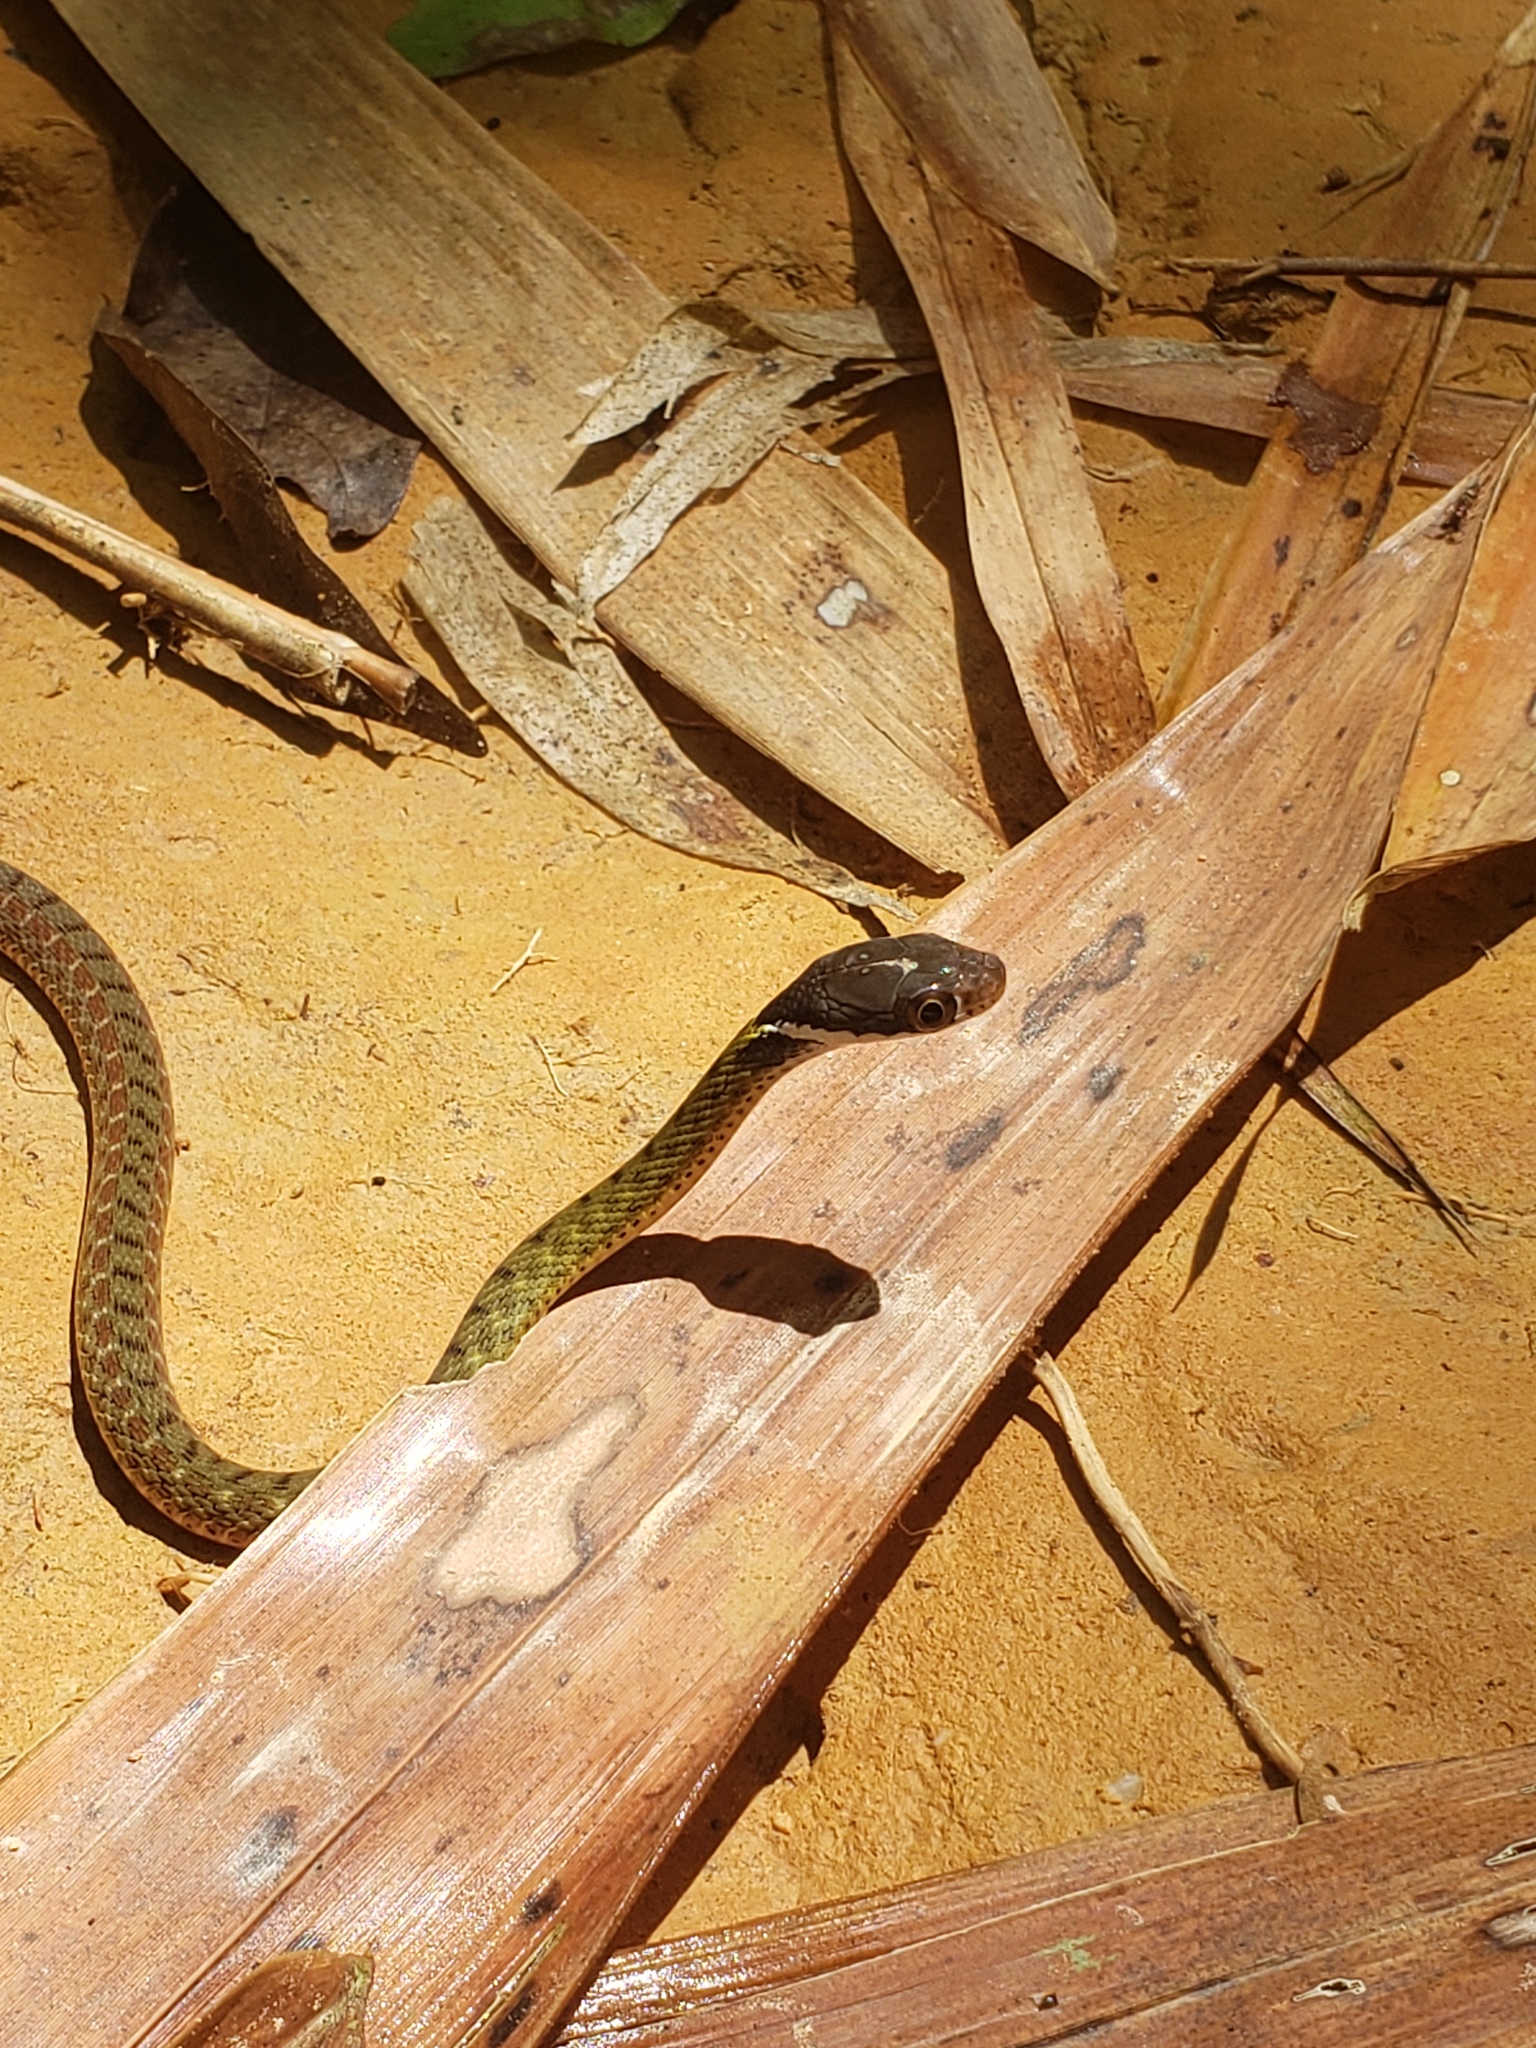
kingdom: Animalia
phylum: Chordata
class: Squamata
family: Colubridae
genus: Rhabdophis
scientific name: Rhabdophis chrysargos
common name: Specklebelly keelback
